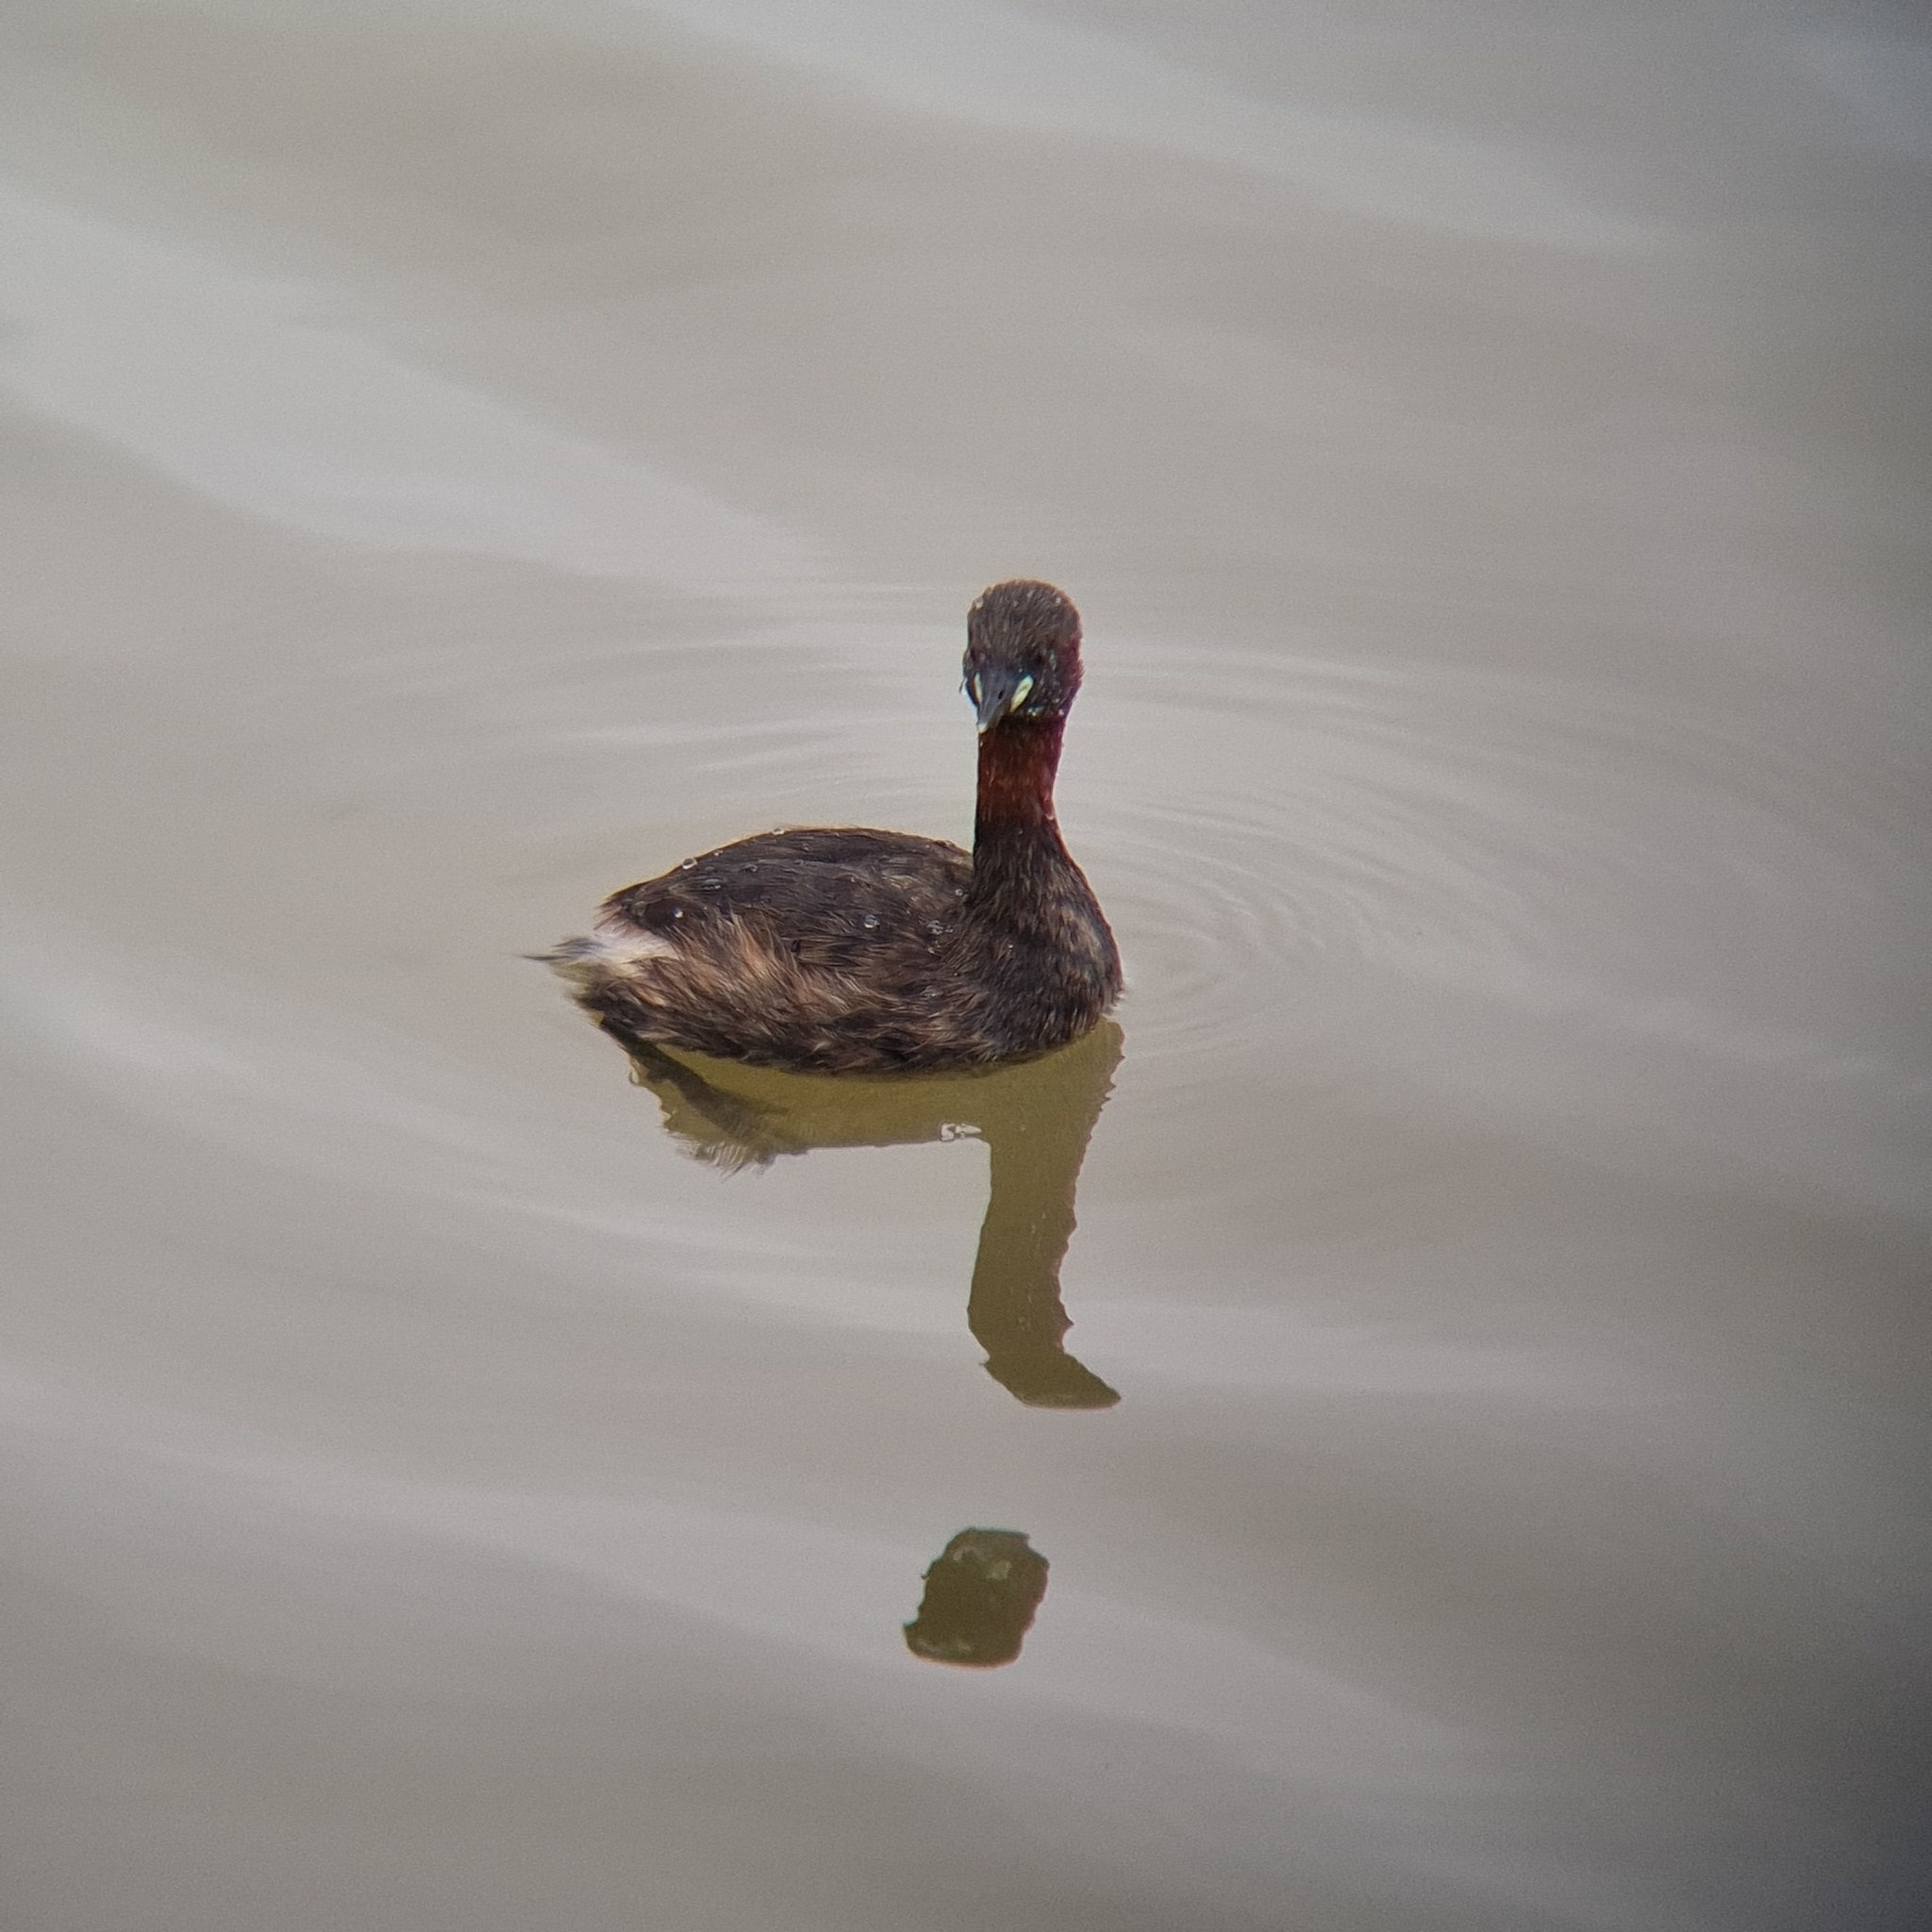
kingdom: Animalia
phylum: Chordata
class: Aves
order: Podicipediformes
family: Podicipedidae
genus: Tachybaptus
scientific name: Tachybaptus ruficollis
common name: Little grebe
